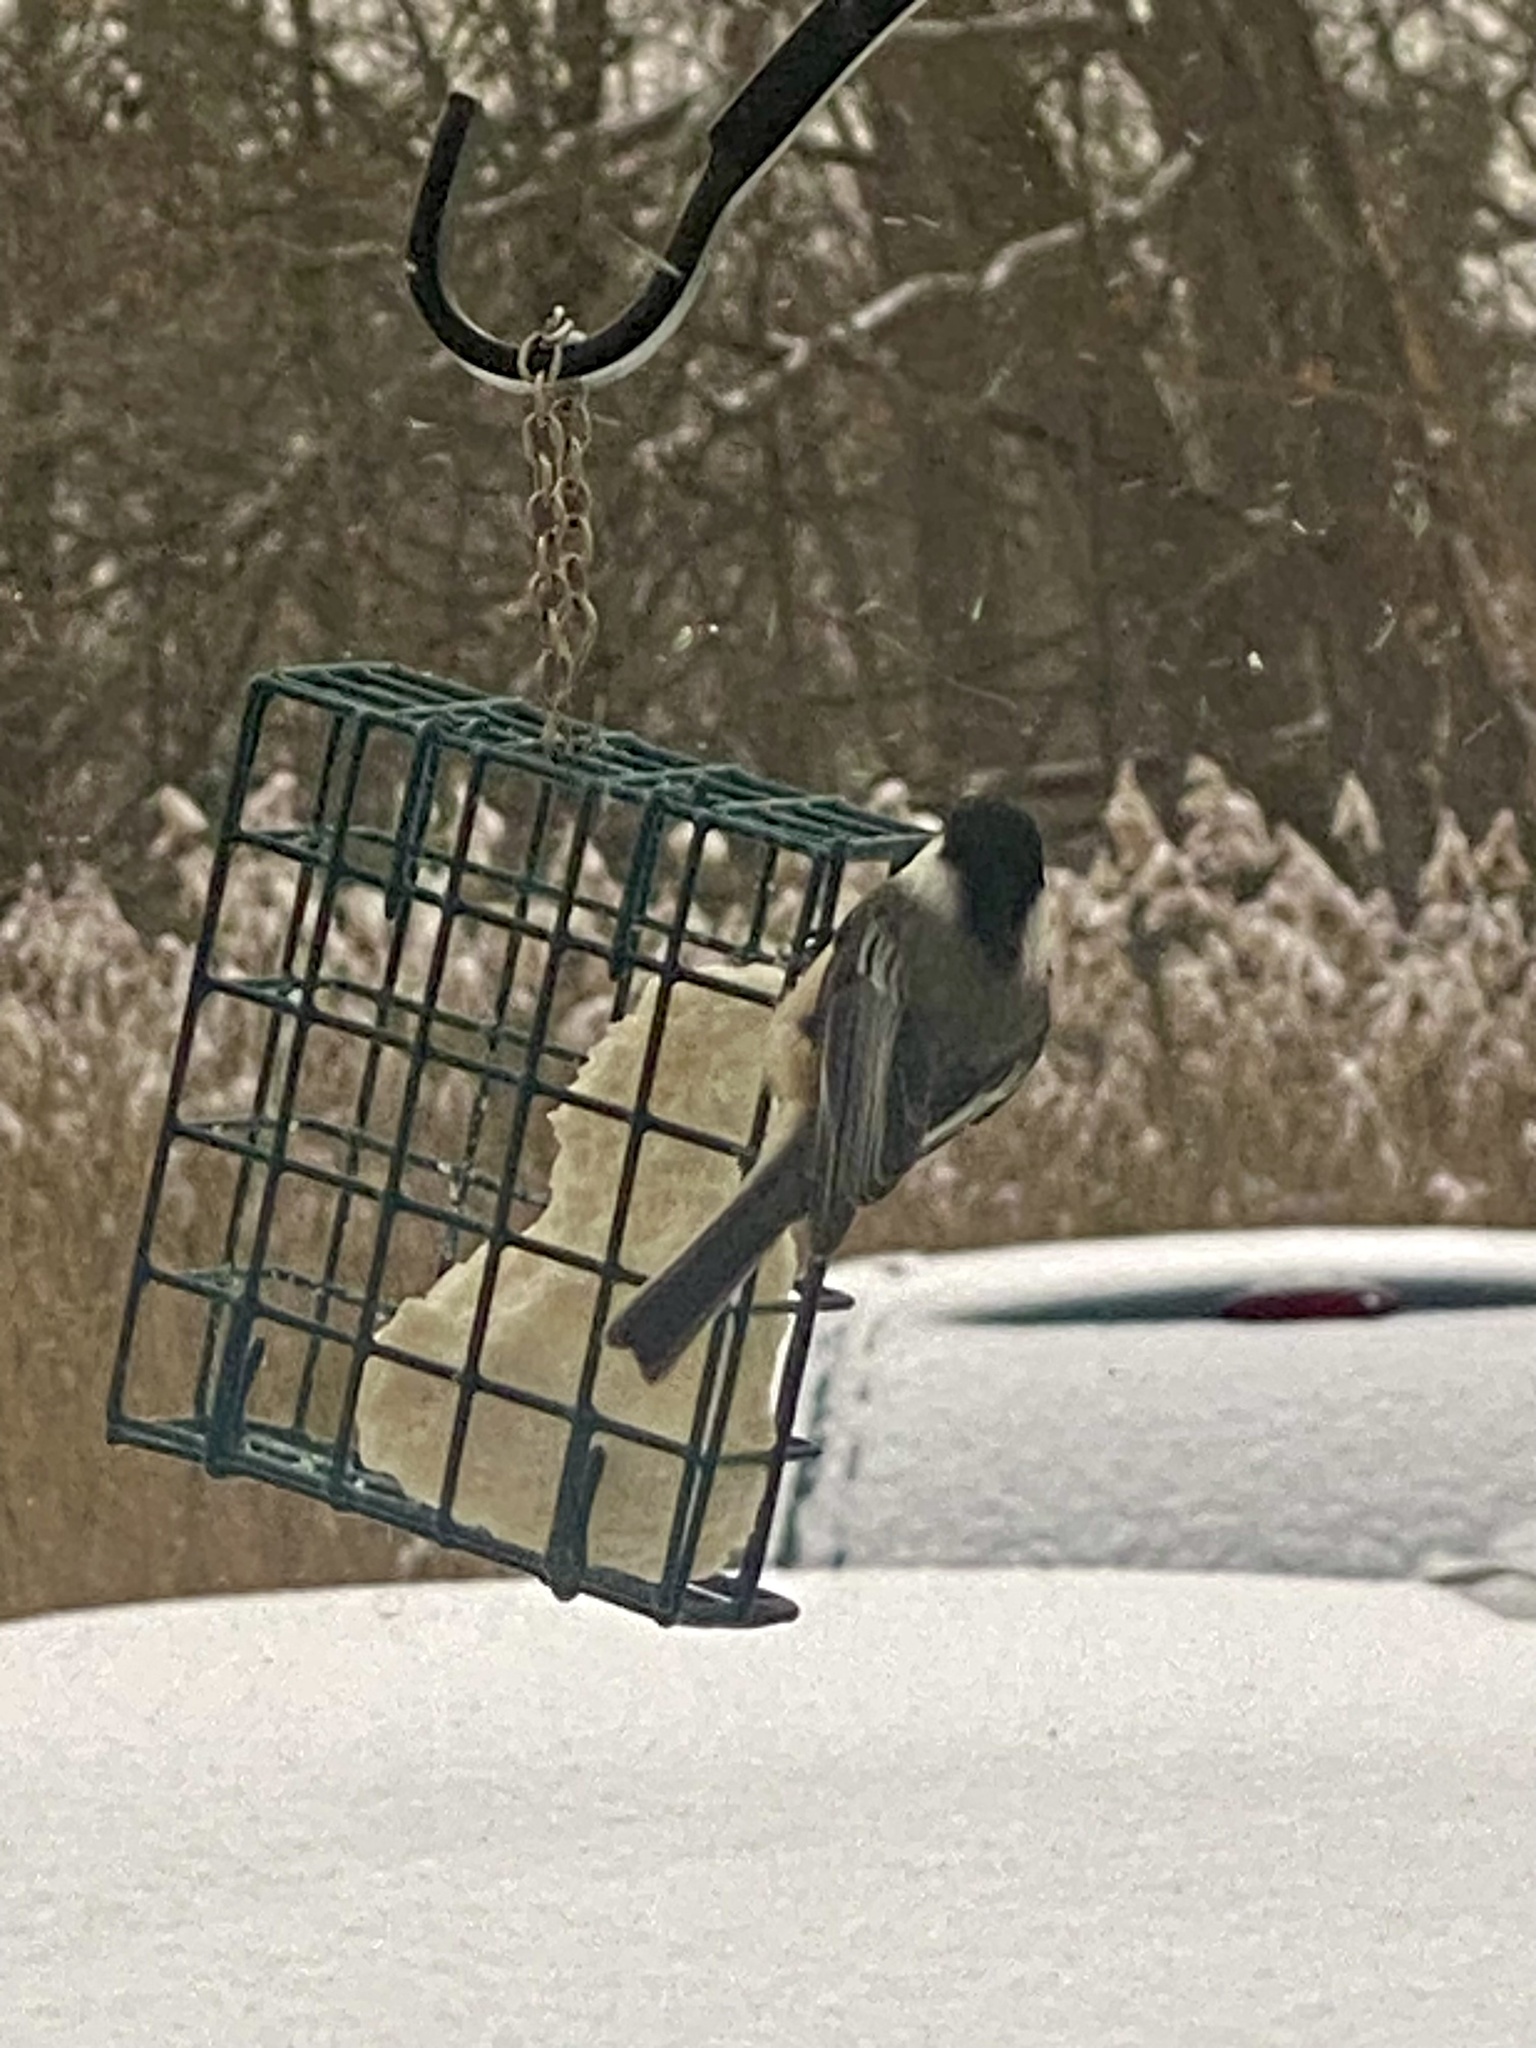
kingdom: Animalia
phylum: Chordata
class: Aves
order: Passeriformes
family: Paridae
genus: Poecile
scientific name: Poecile atricapillus
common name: Black-capped chickadee
